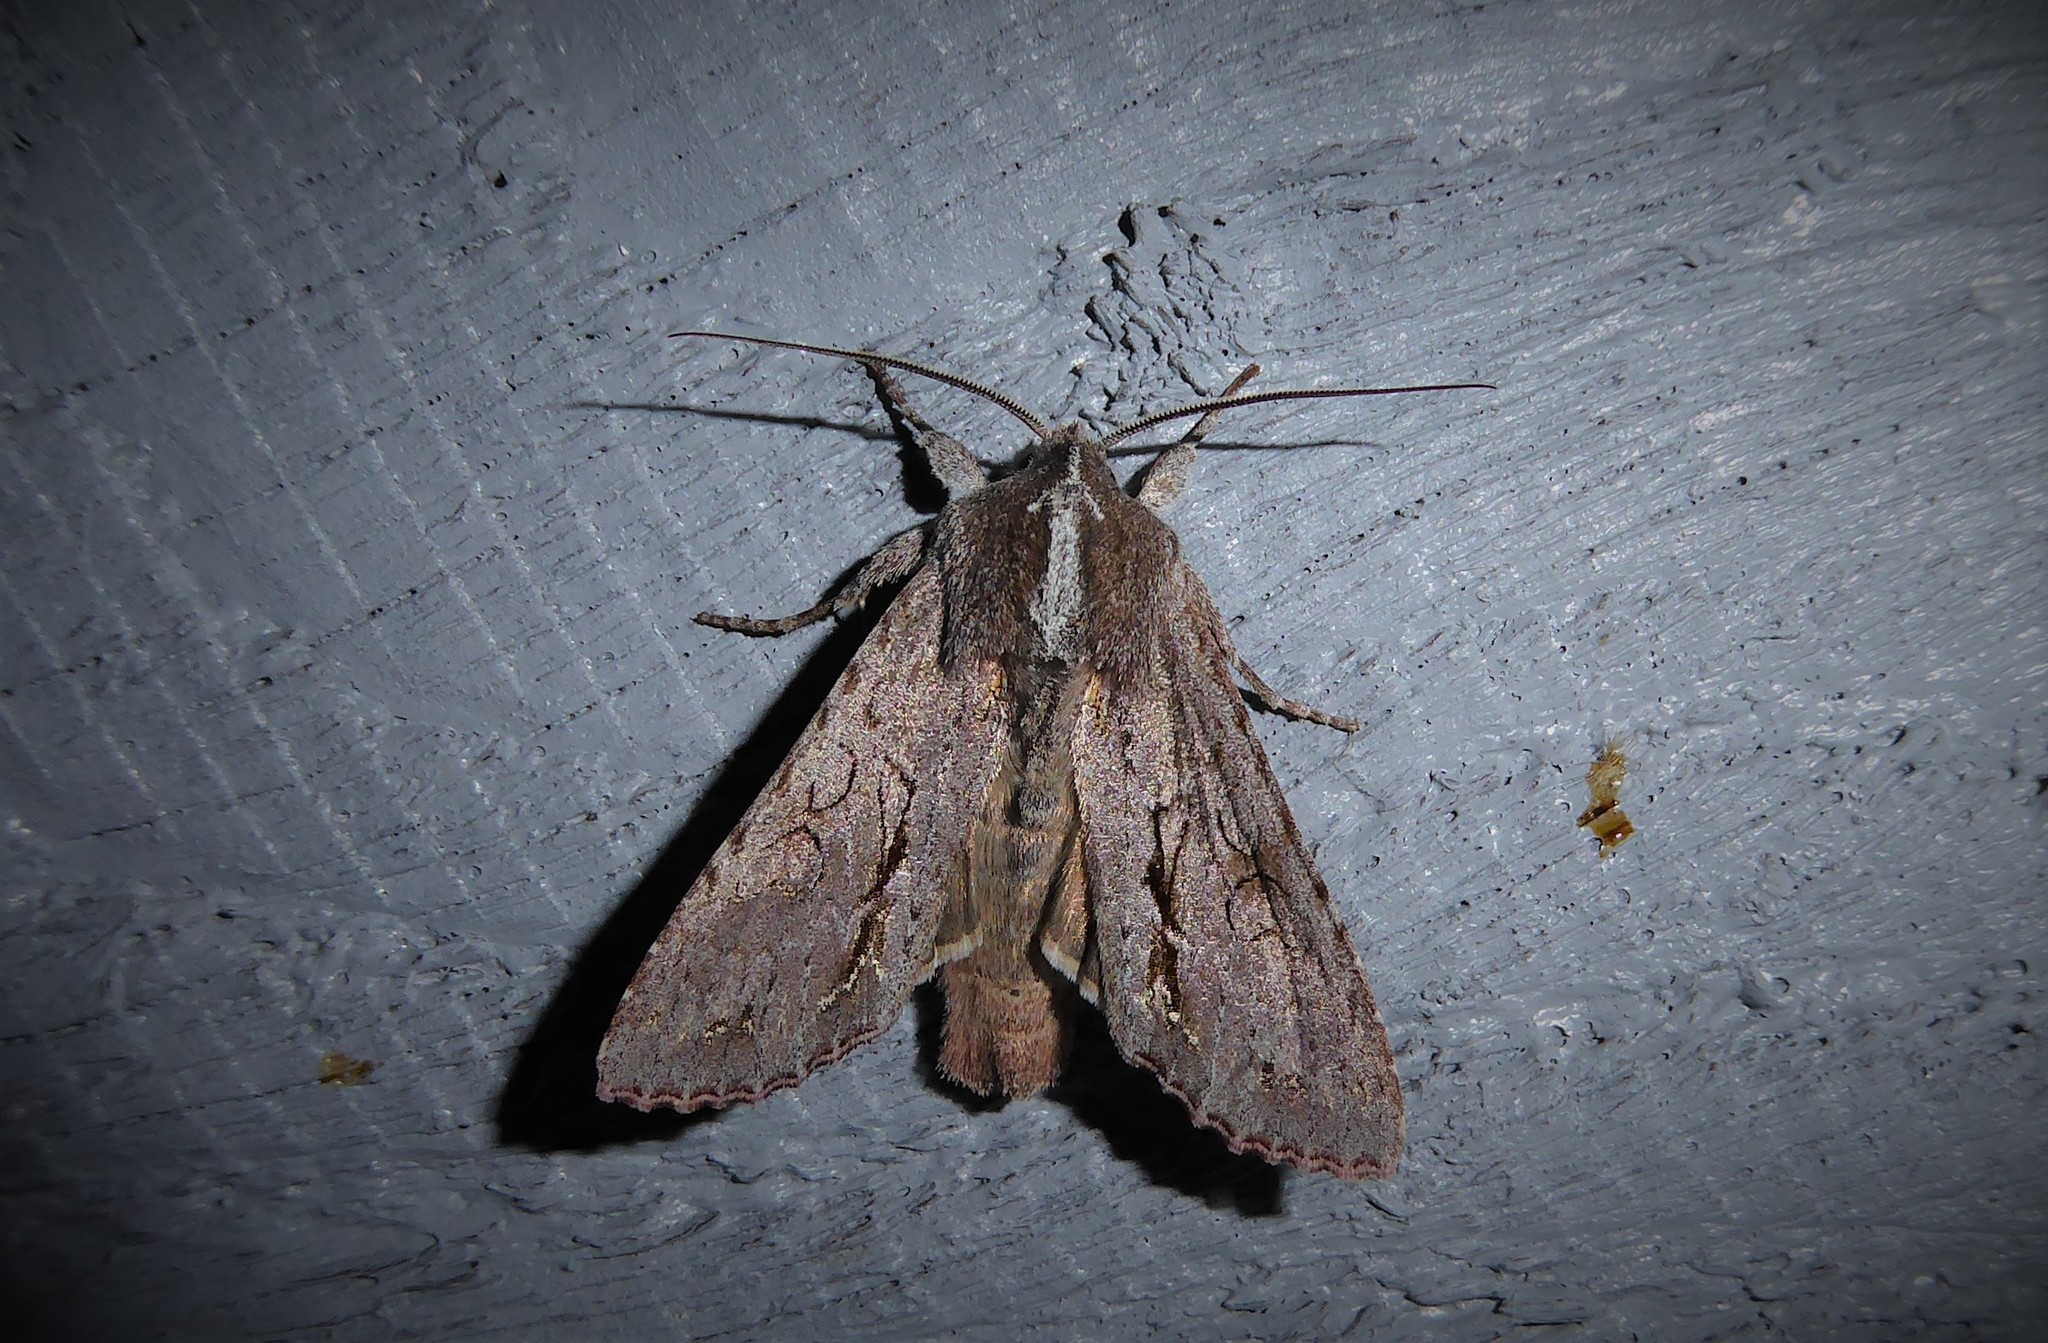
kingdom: Animalia
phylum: Arthropoda
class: Insecta
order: Lepidoptera
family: Noctuidae
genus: Ichneutica
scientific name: Ichneutica
